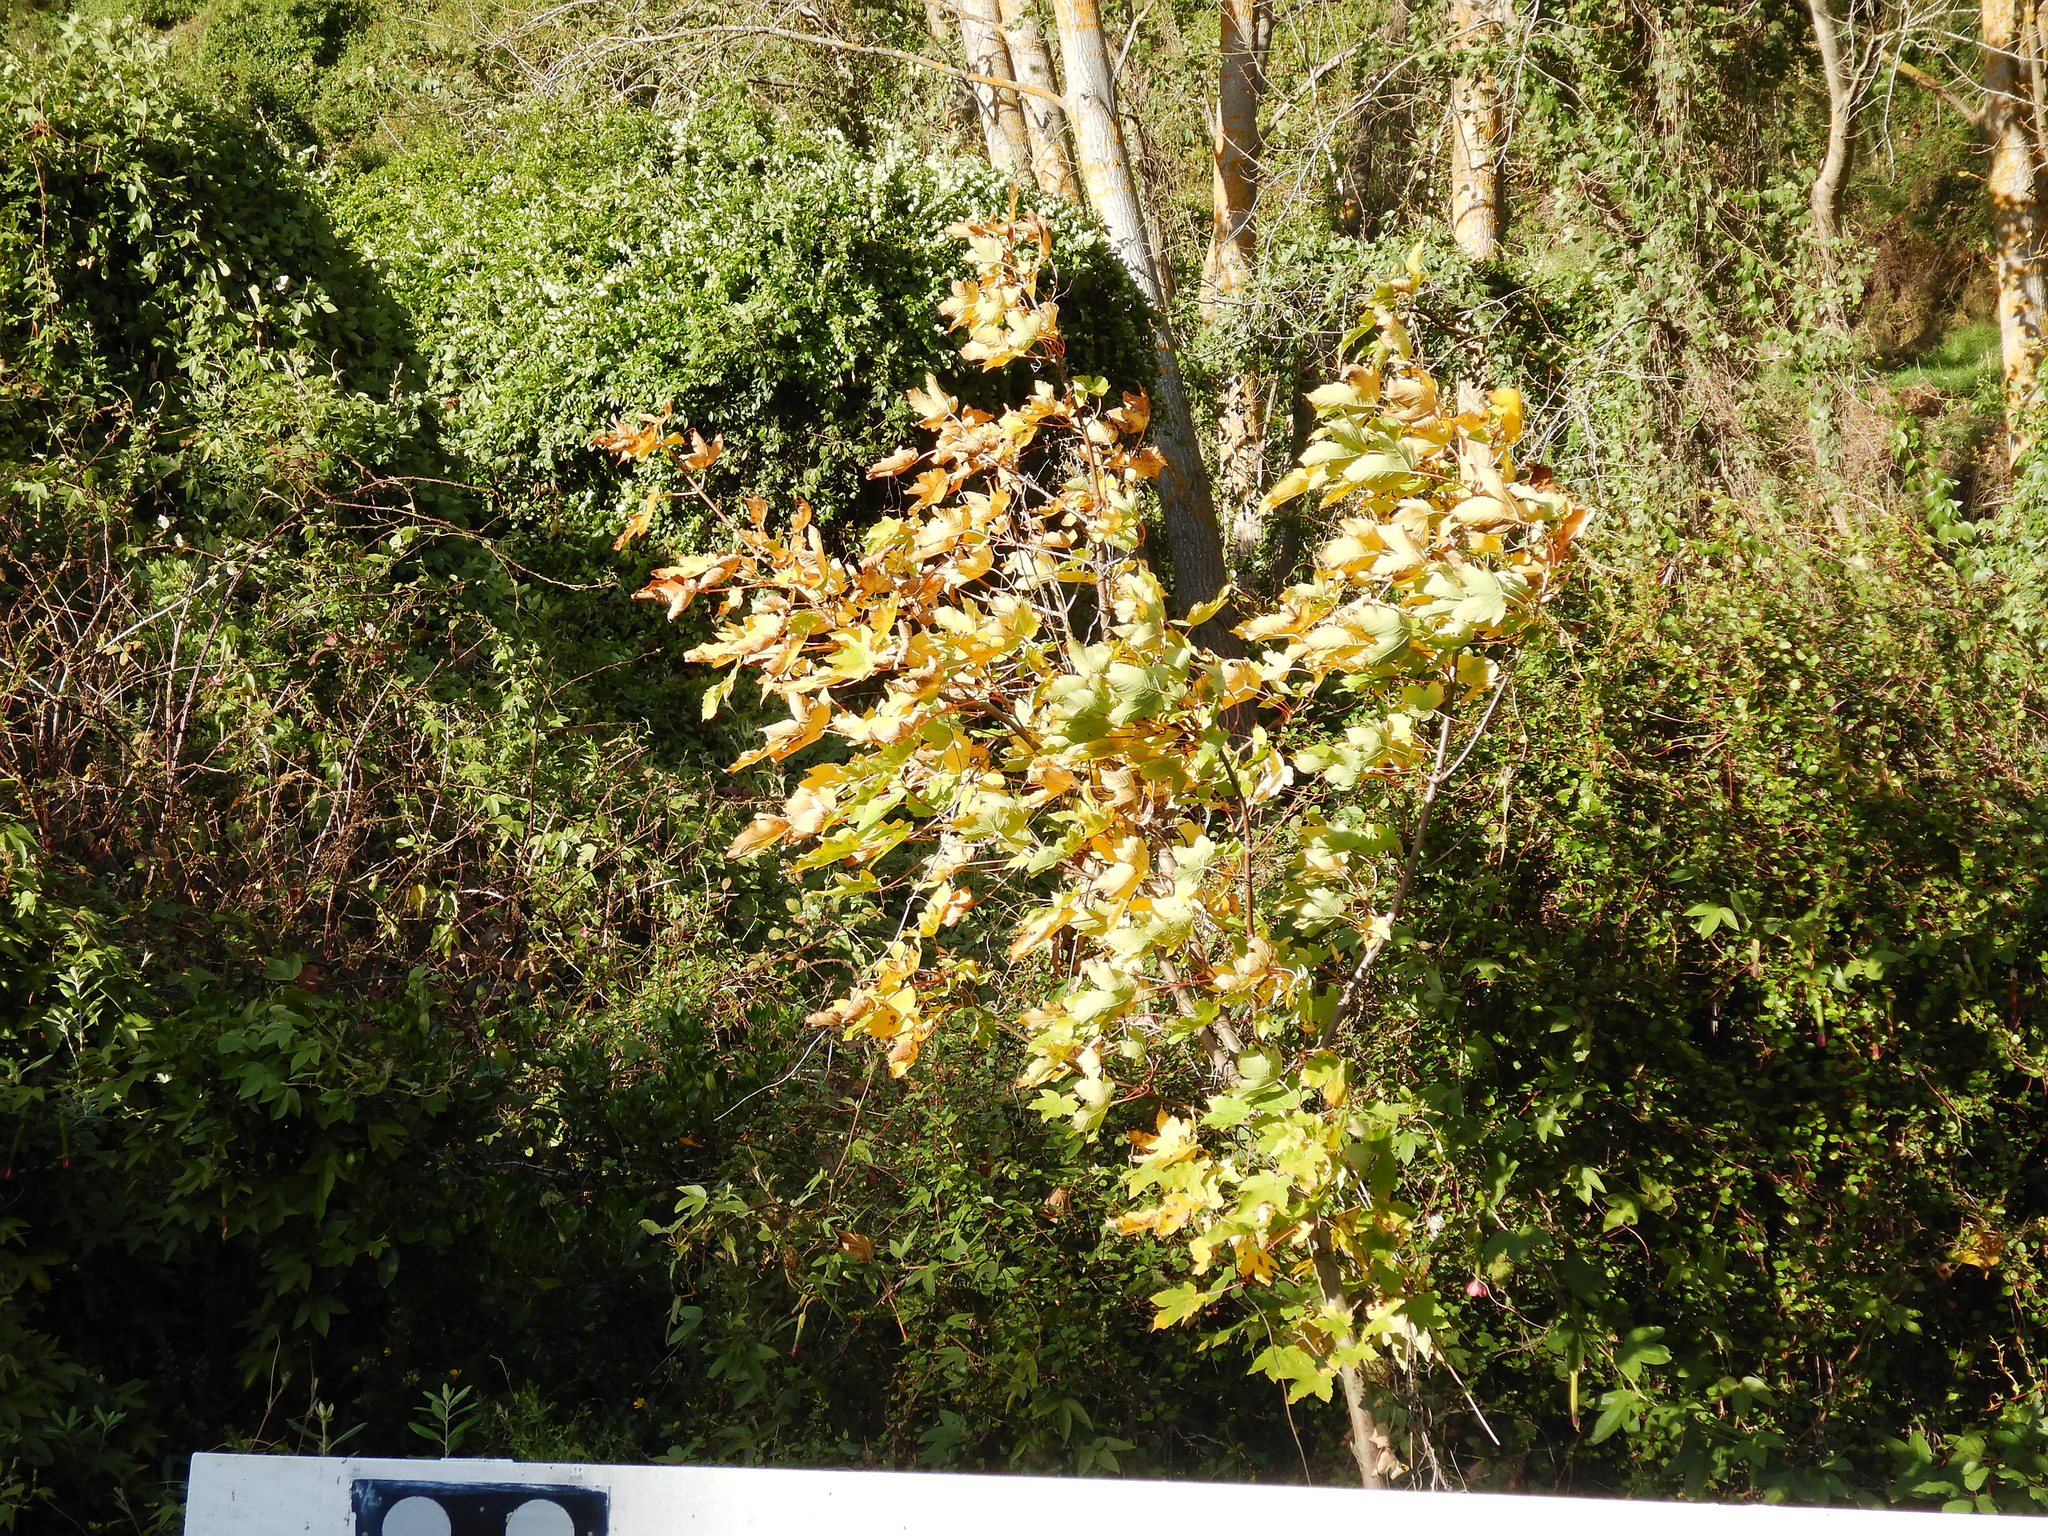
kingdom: Plantae
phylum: Tracheophyta
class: Magnoliopsida
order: Sapindales
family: Sapindaceae
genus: Acer
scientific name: Acer pseudoplatanus
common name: Sycamore
